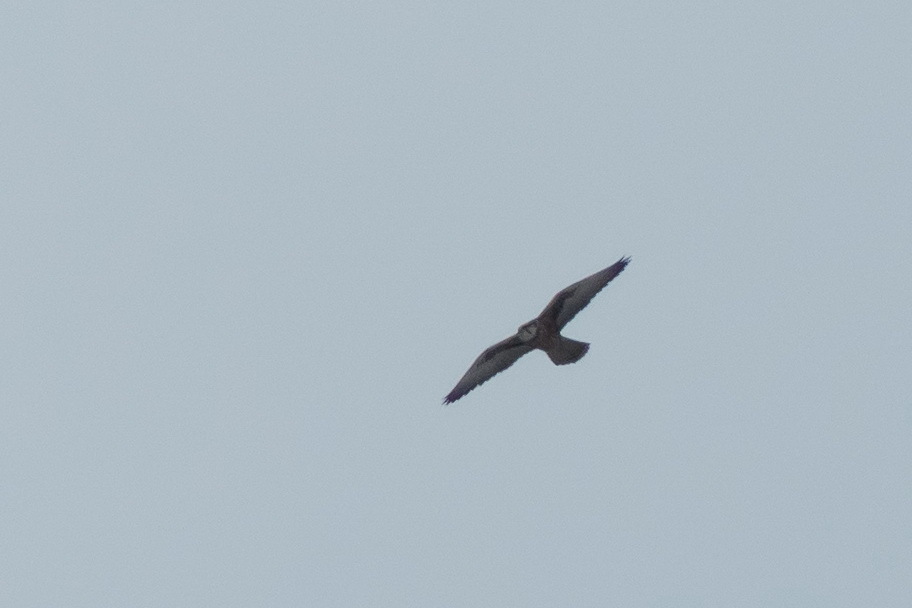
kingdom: Animalia
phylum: Chordata
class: Aves
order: Falconiformes
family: Falconidae
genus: Falco
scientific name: Falco cherrug
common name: Saker falcon
